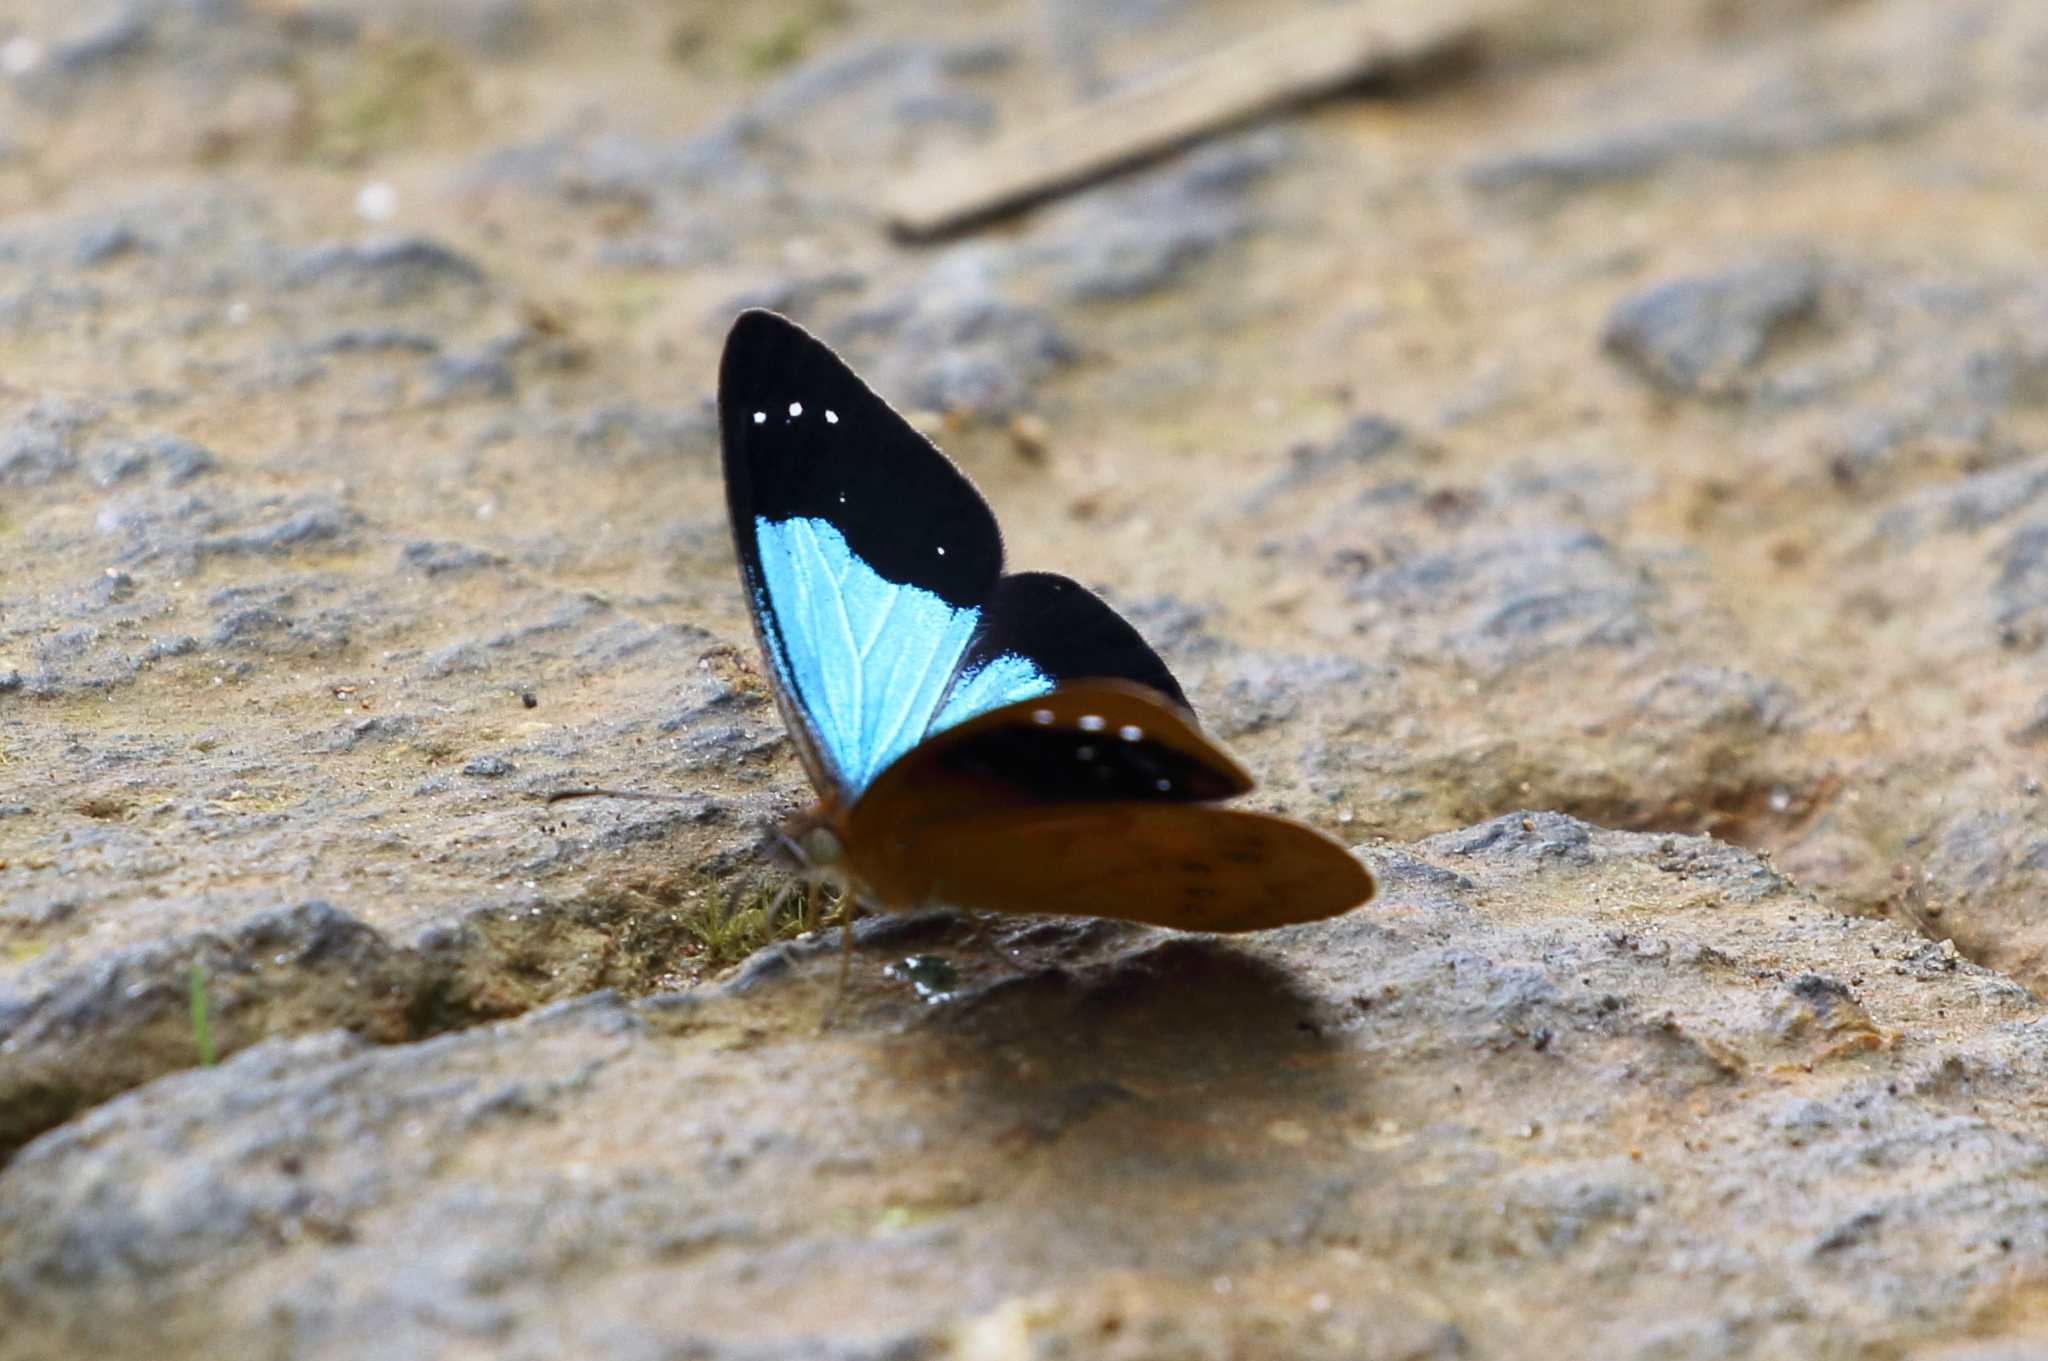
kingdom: Animalia
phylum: Arthropoda
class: Insecta
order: Lepidoptera
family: Nymphalidae
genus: Lymanopoda
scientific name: Lymanopoda caeruleata
